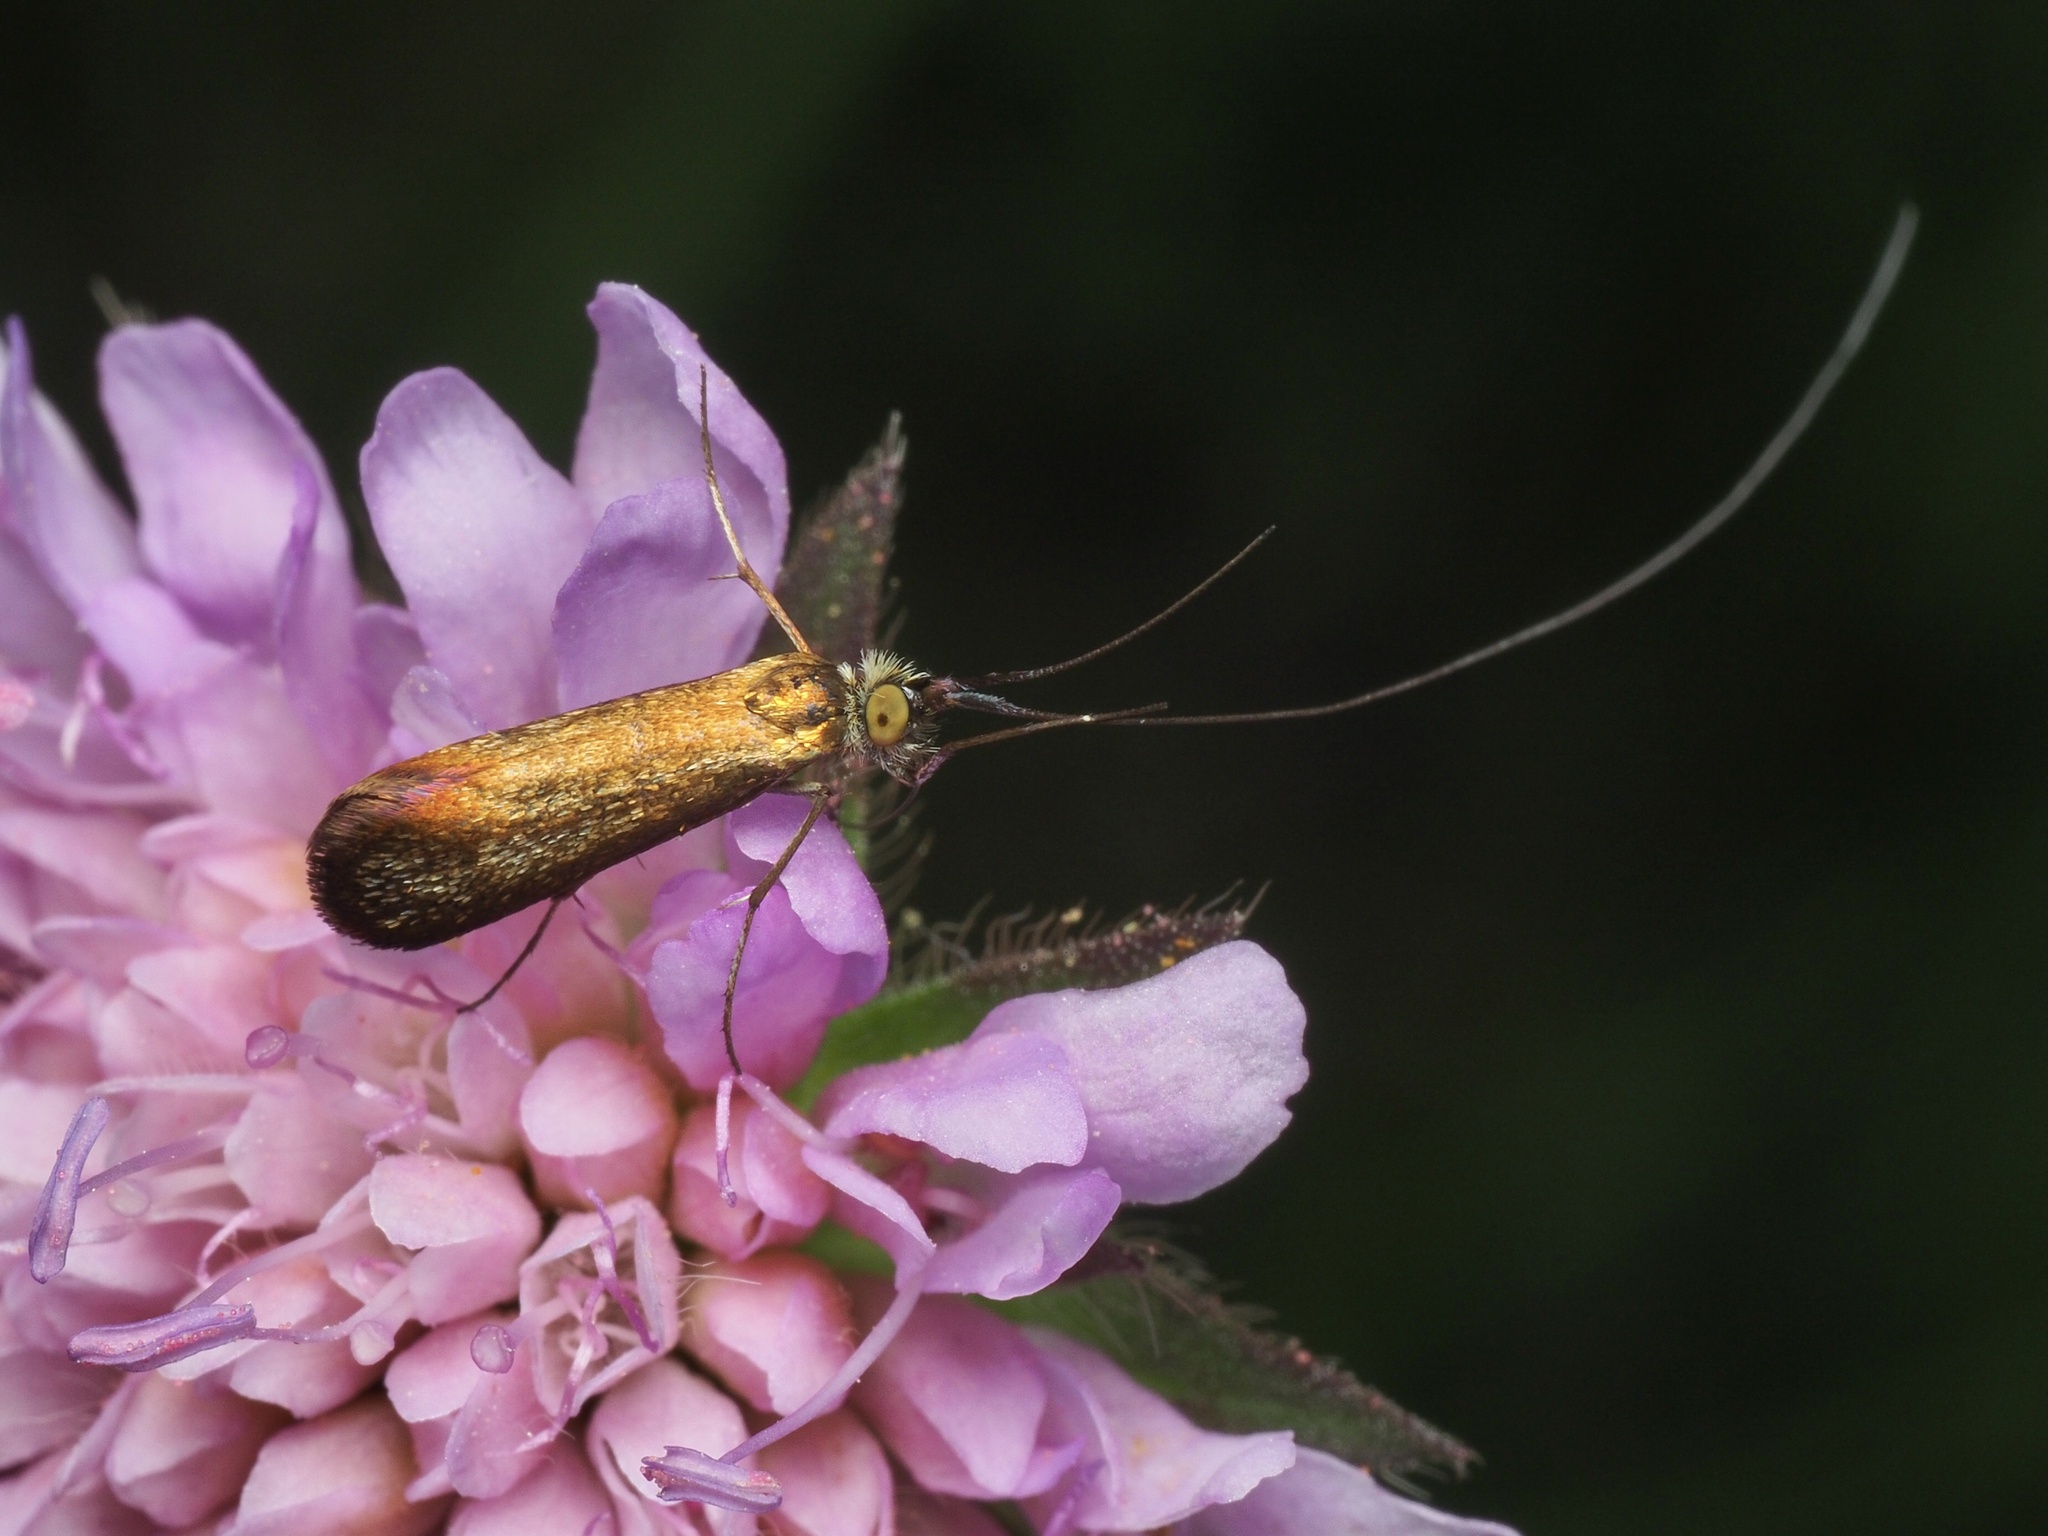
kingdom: Animalia
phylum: Arthropoda
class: Insecta
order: Lepidoptera
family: Adelidae
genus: Nemophora
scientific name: Nemophora metallica
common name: Brassy long-horn
